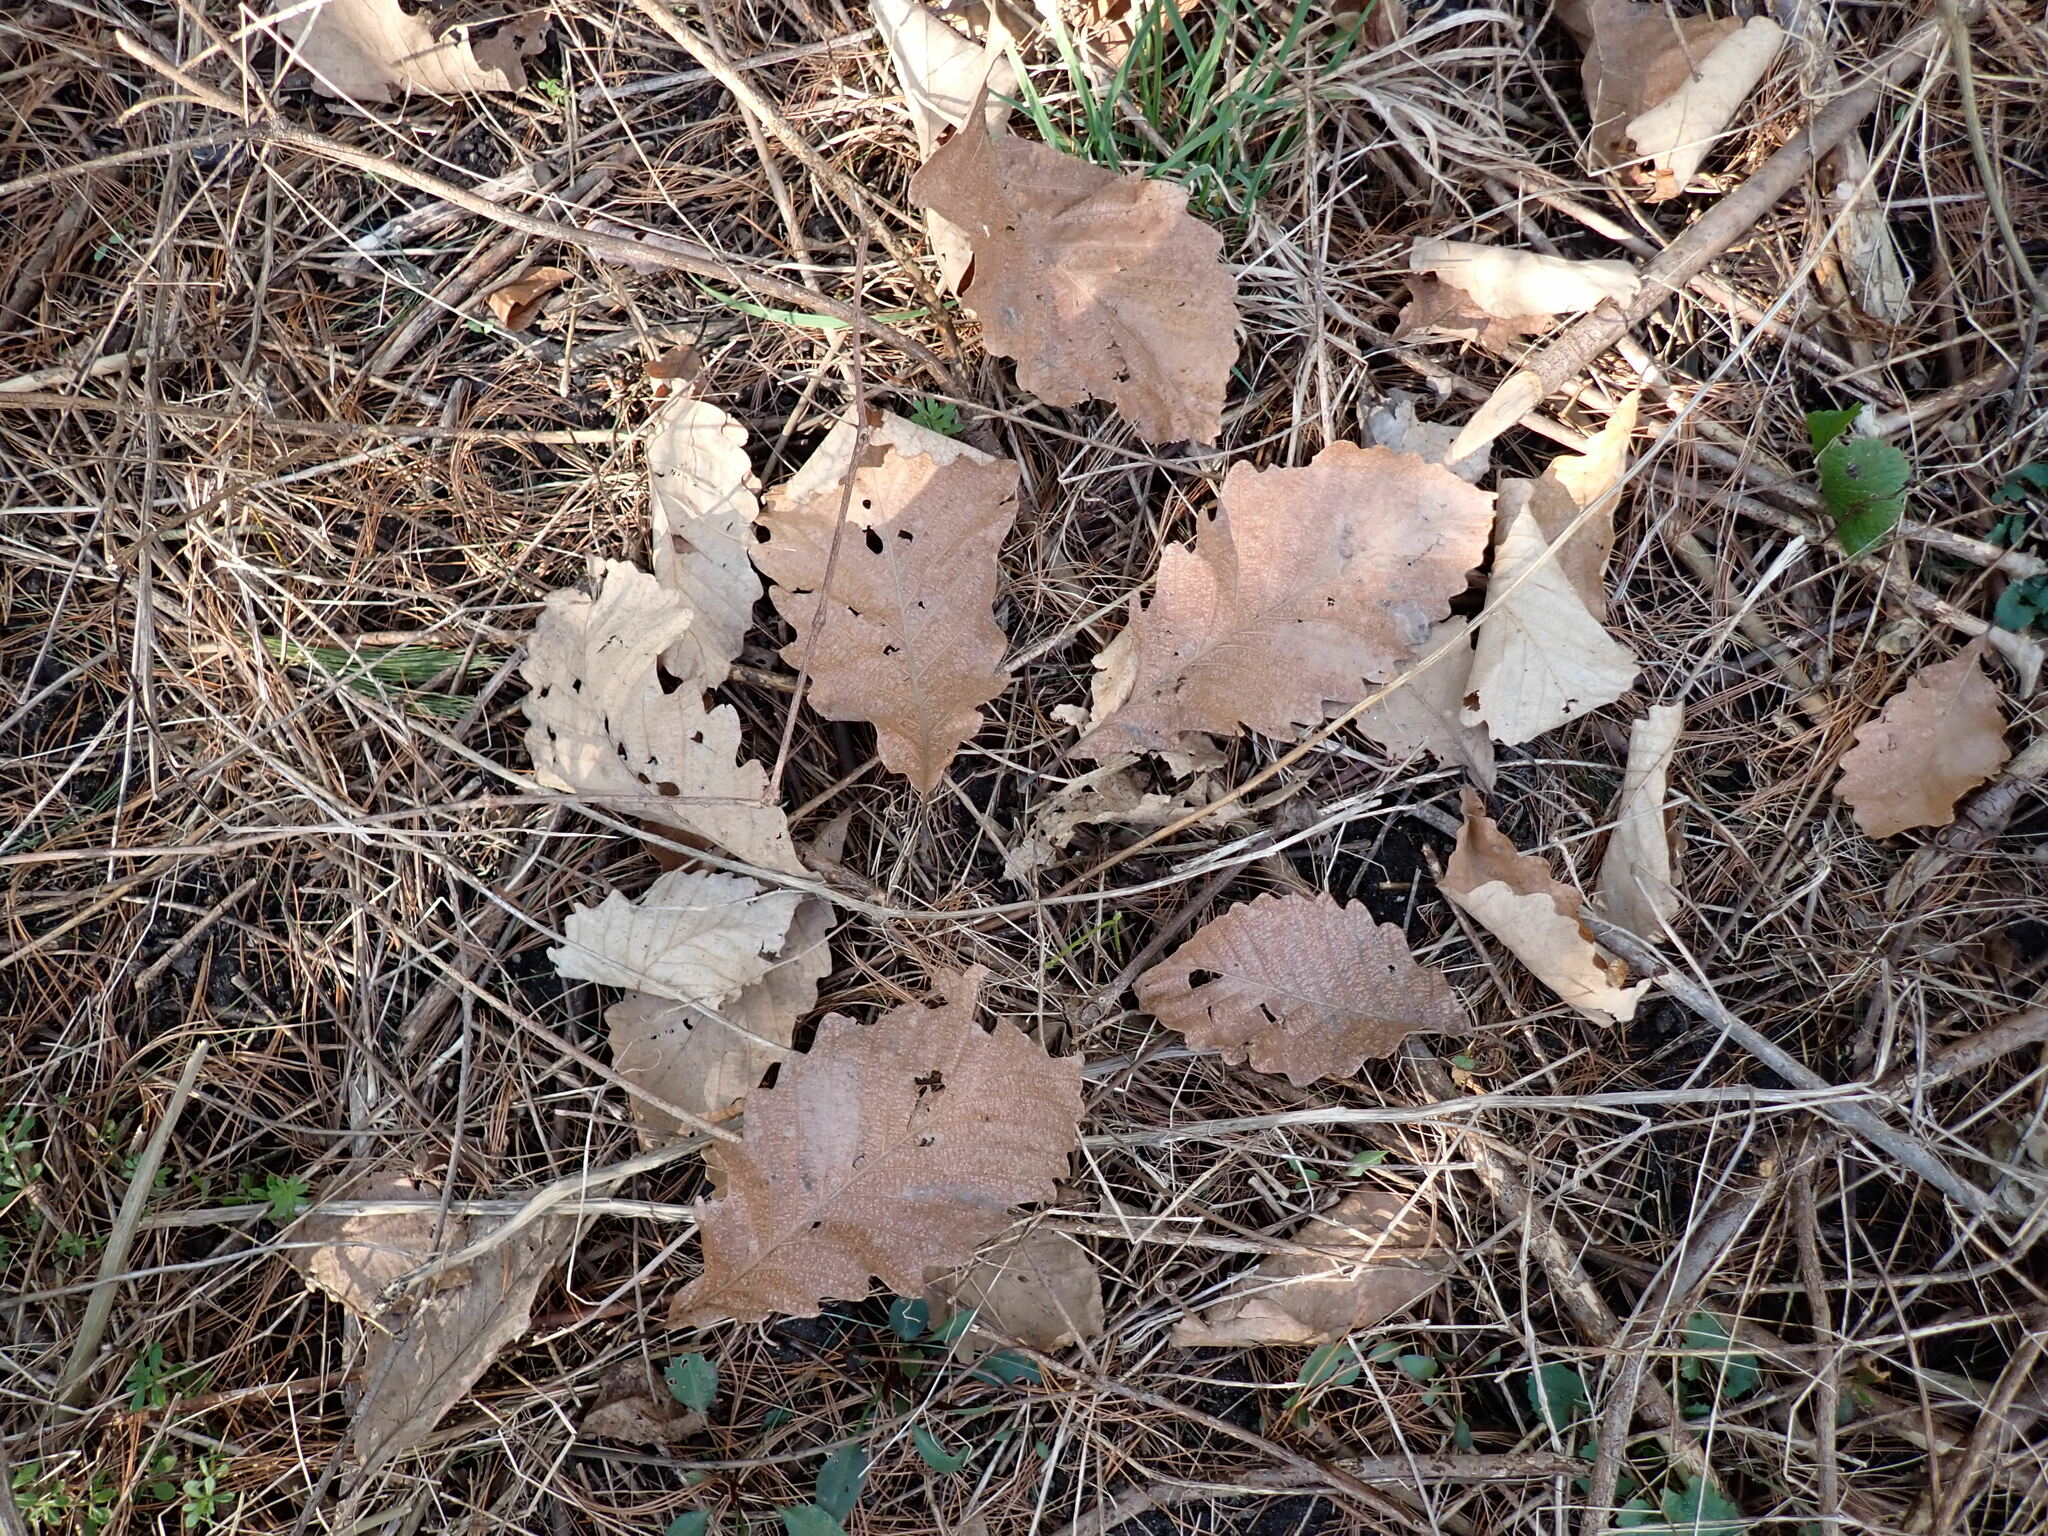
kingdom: Plantae
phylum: Tracheophyta
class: Magnoliopsida
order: Fagales
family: Fagaceae
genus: Quercus
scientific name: Quercus montana
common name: Chestnut oak
